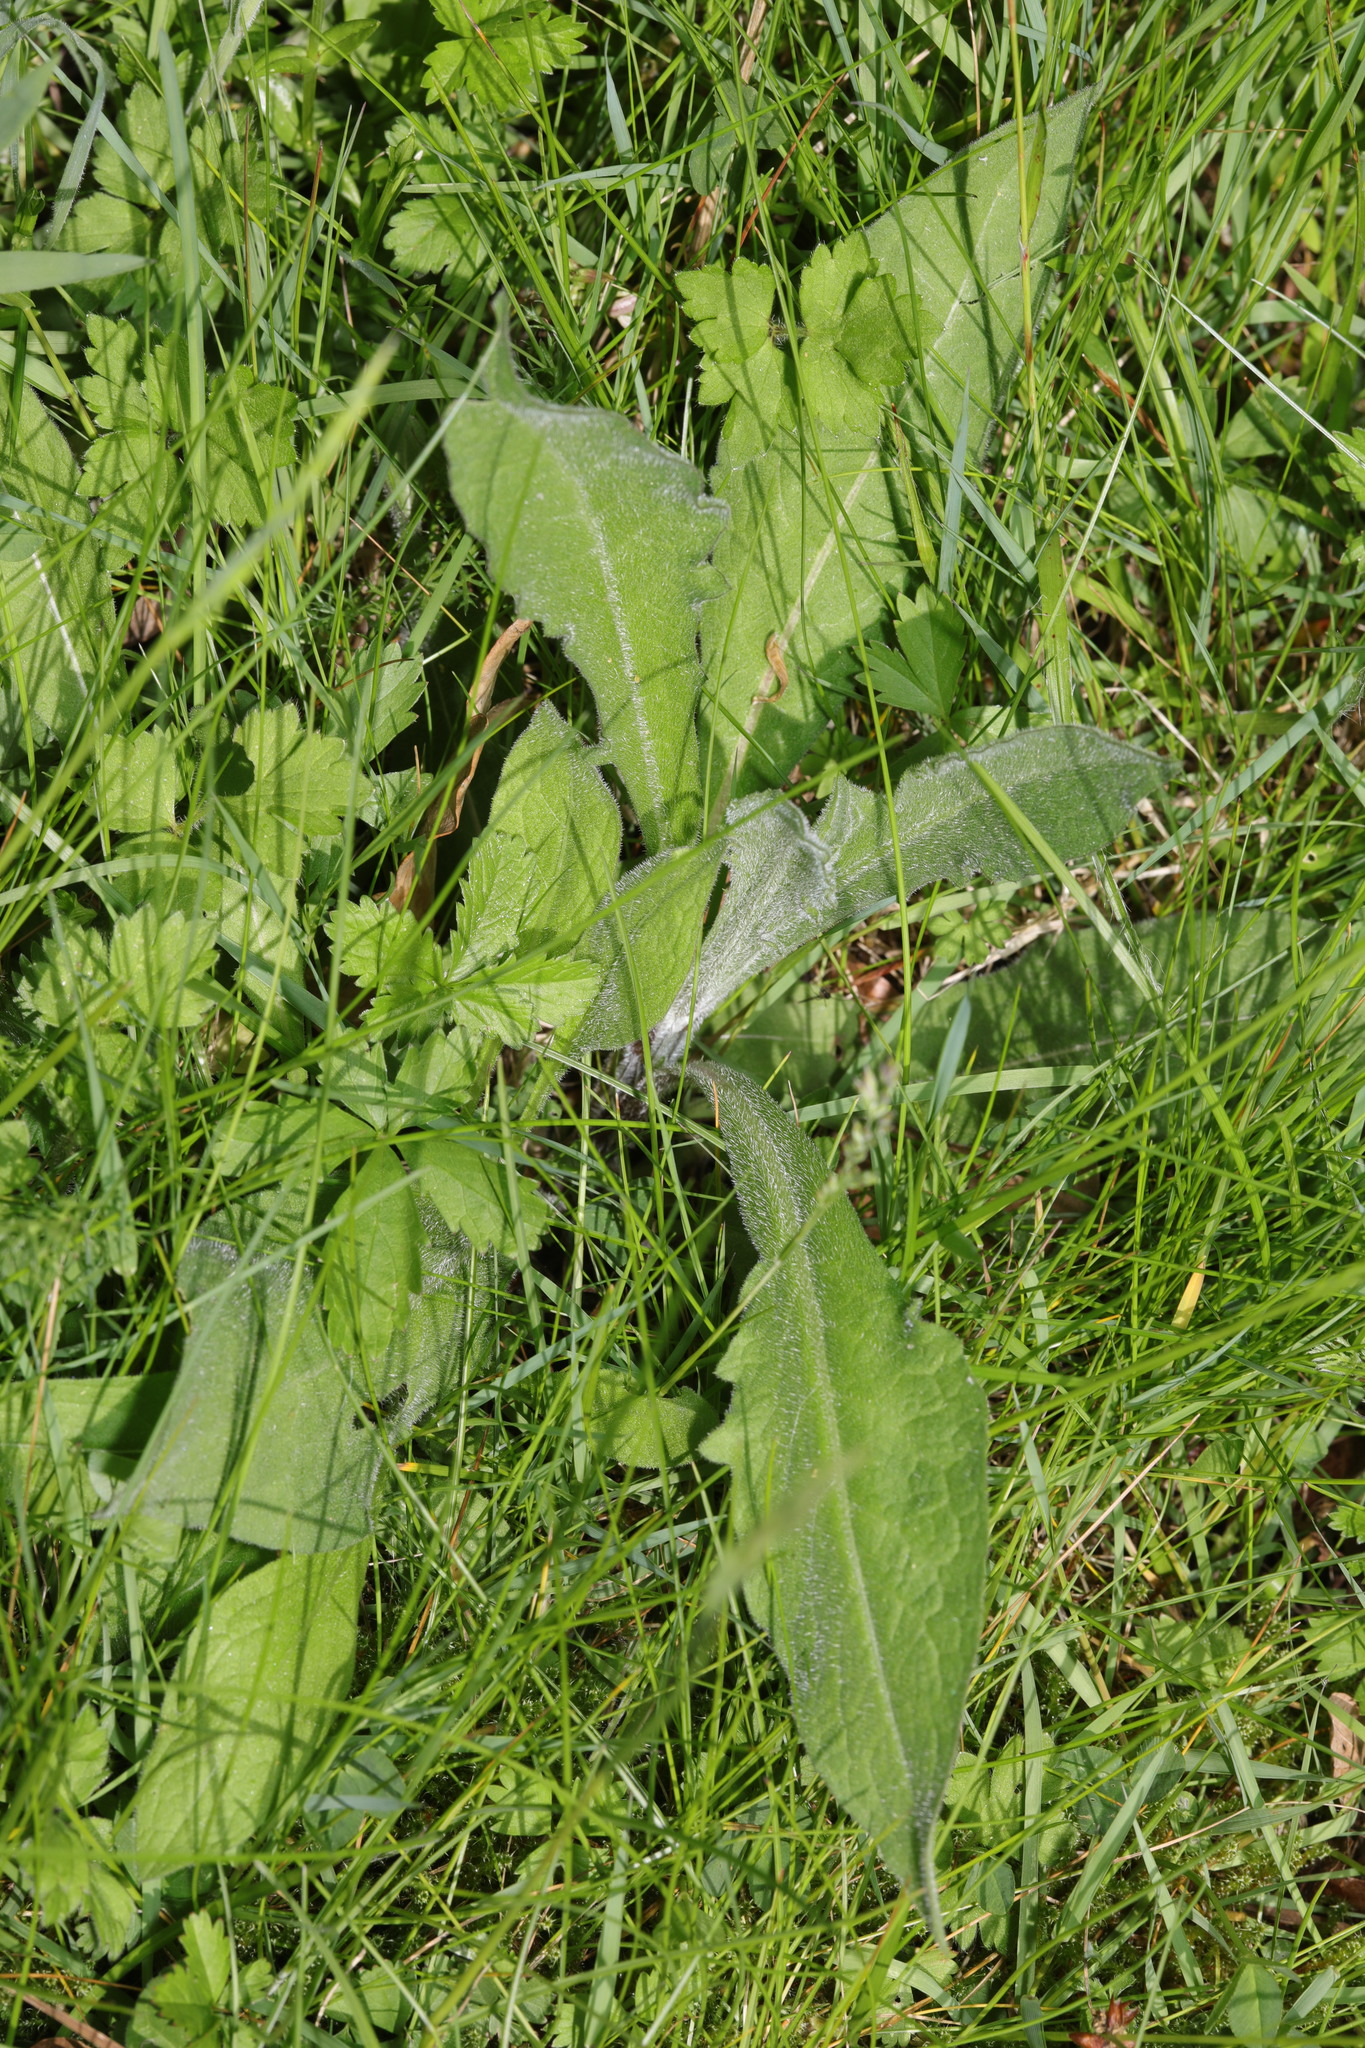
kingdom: Plantae
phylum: Tracheophyta
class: Magnoliopsida
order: Asterales
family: Asteraceae
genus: Centaurea
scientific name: Centaurea nigra
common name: Lesser knapweed
